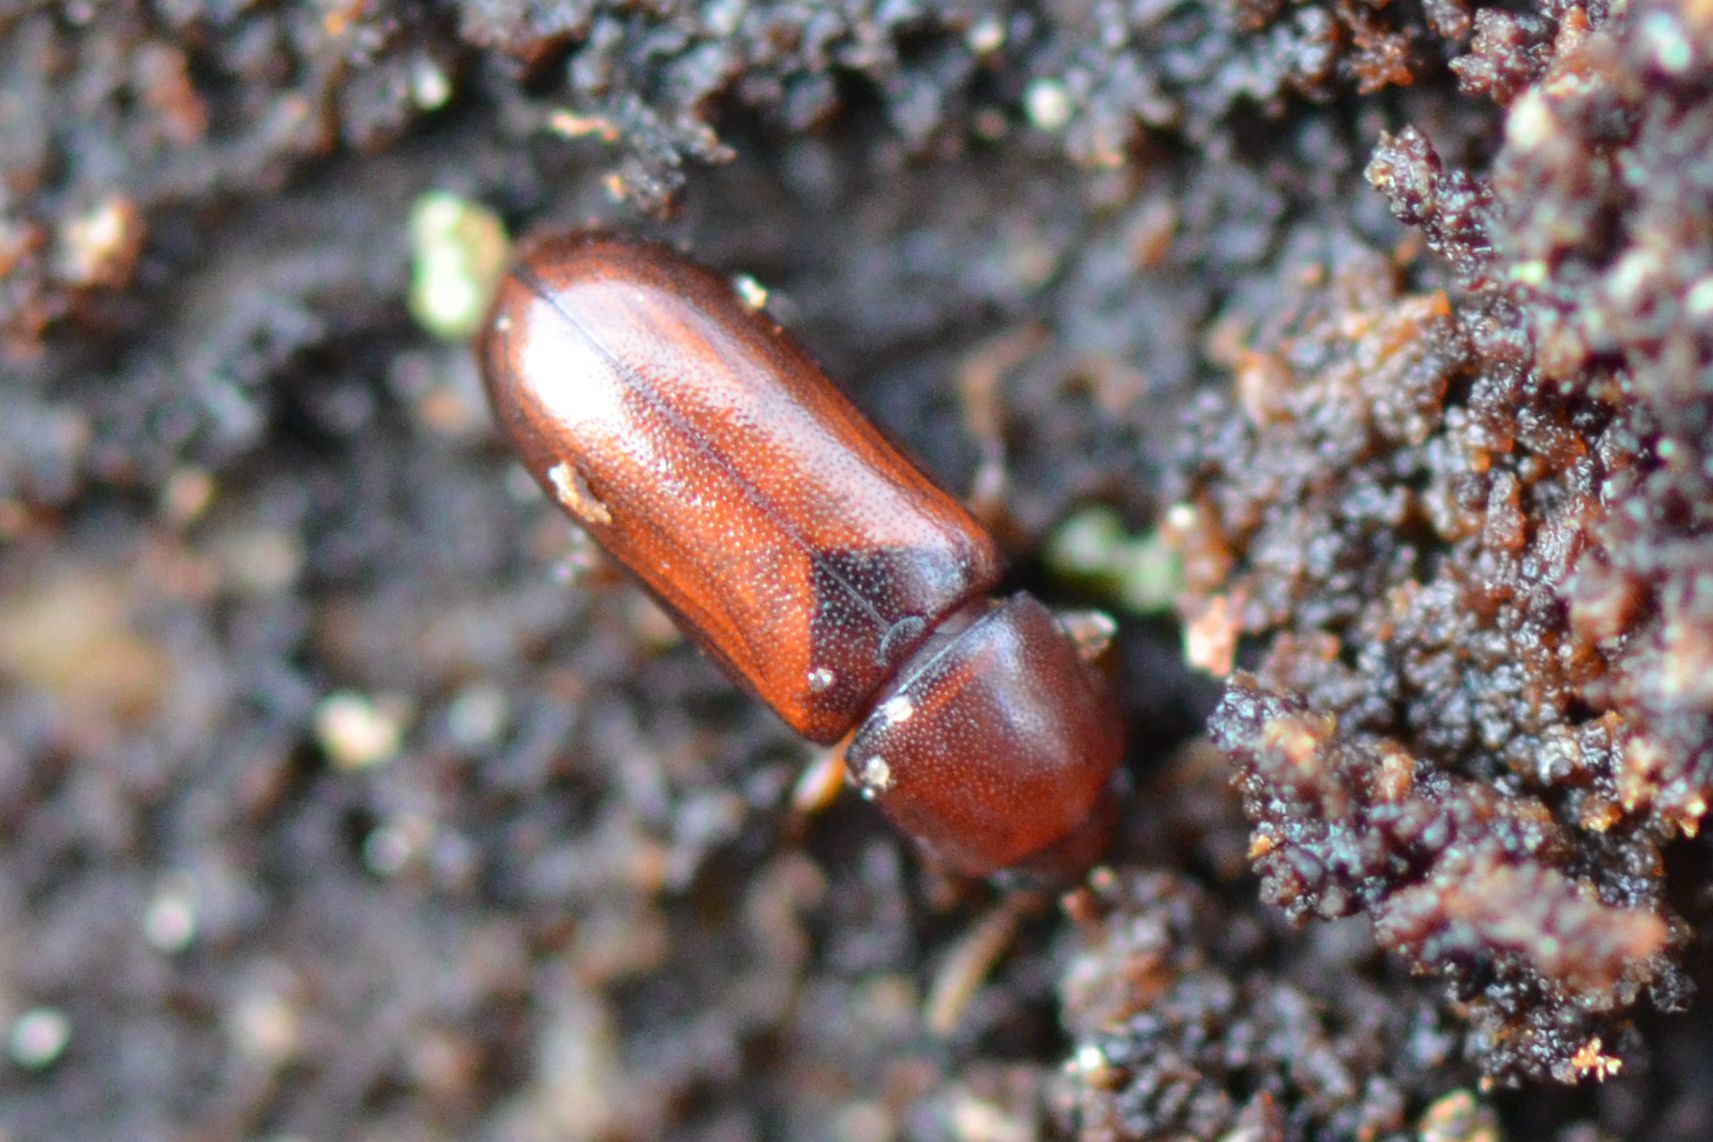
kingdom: Animalia
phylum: Arthropoda
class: Insecta
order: Coleoptera
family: Tenebrionidae
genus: Corticeus
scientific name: Corticeus fraxini
